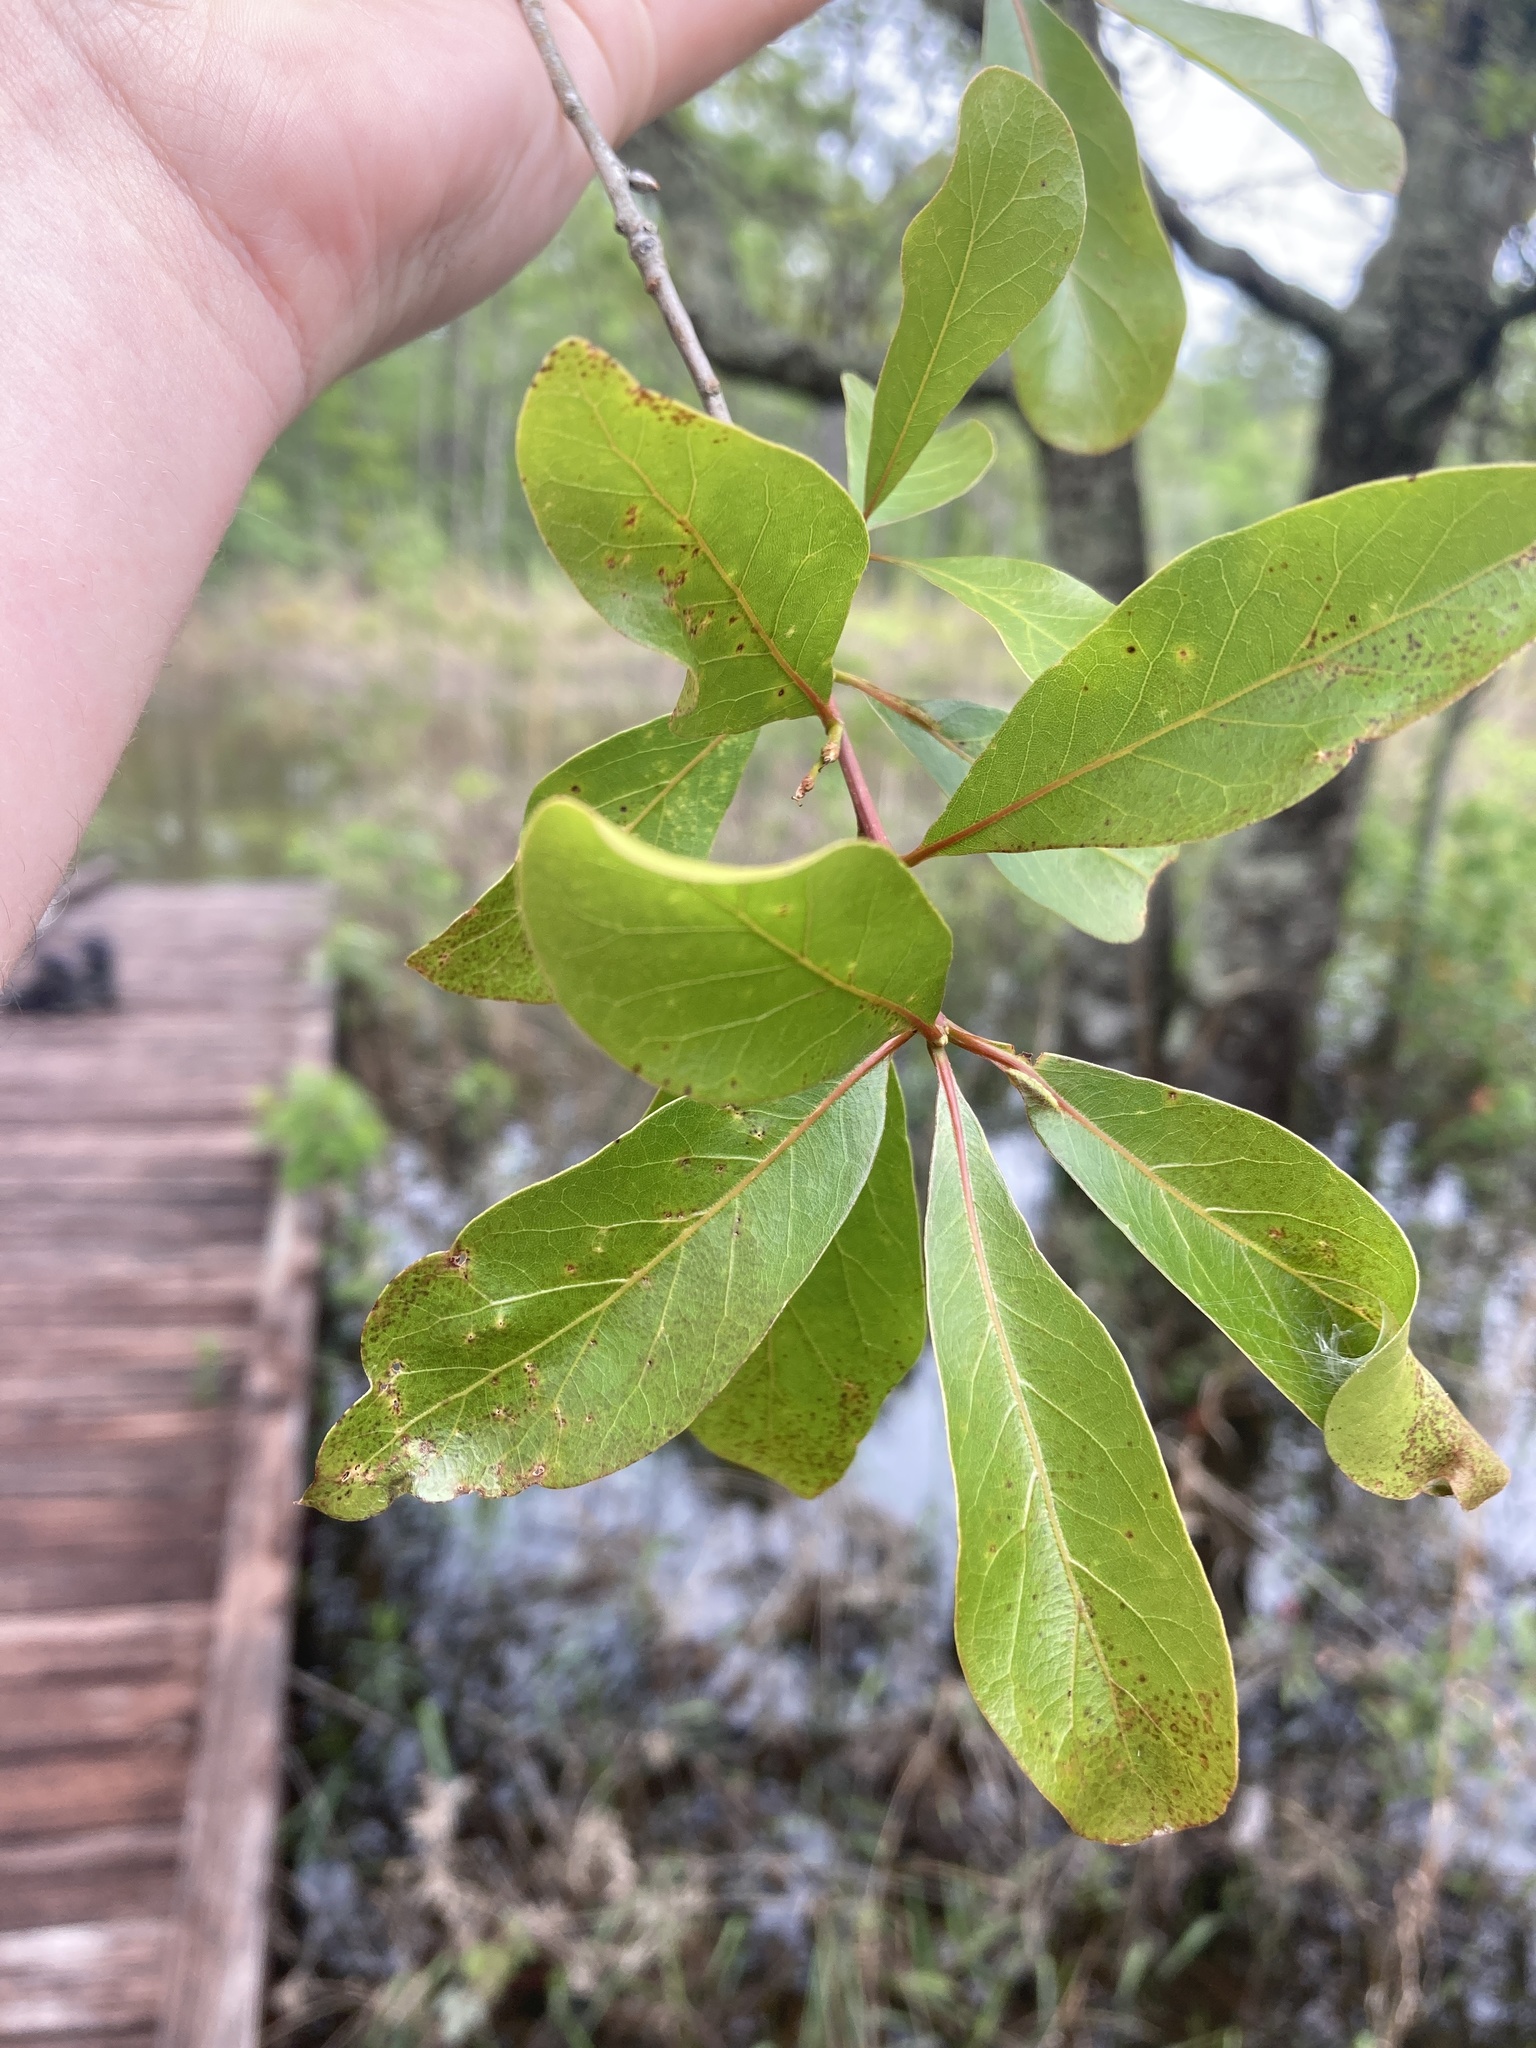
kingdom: Plantae
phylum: Tracheophyta
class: Magnoliopsida
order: Fagales
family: Fagaceae
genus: Quercus
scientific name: Quercus laurifolia
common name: Swamp laurel oak
